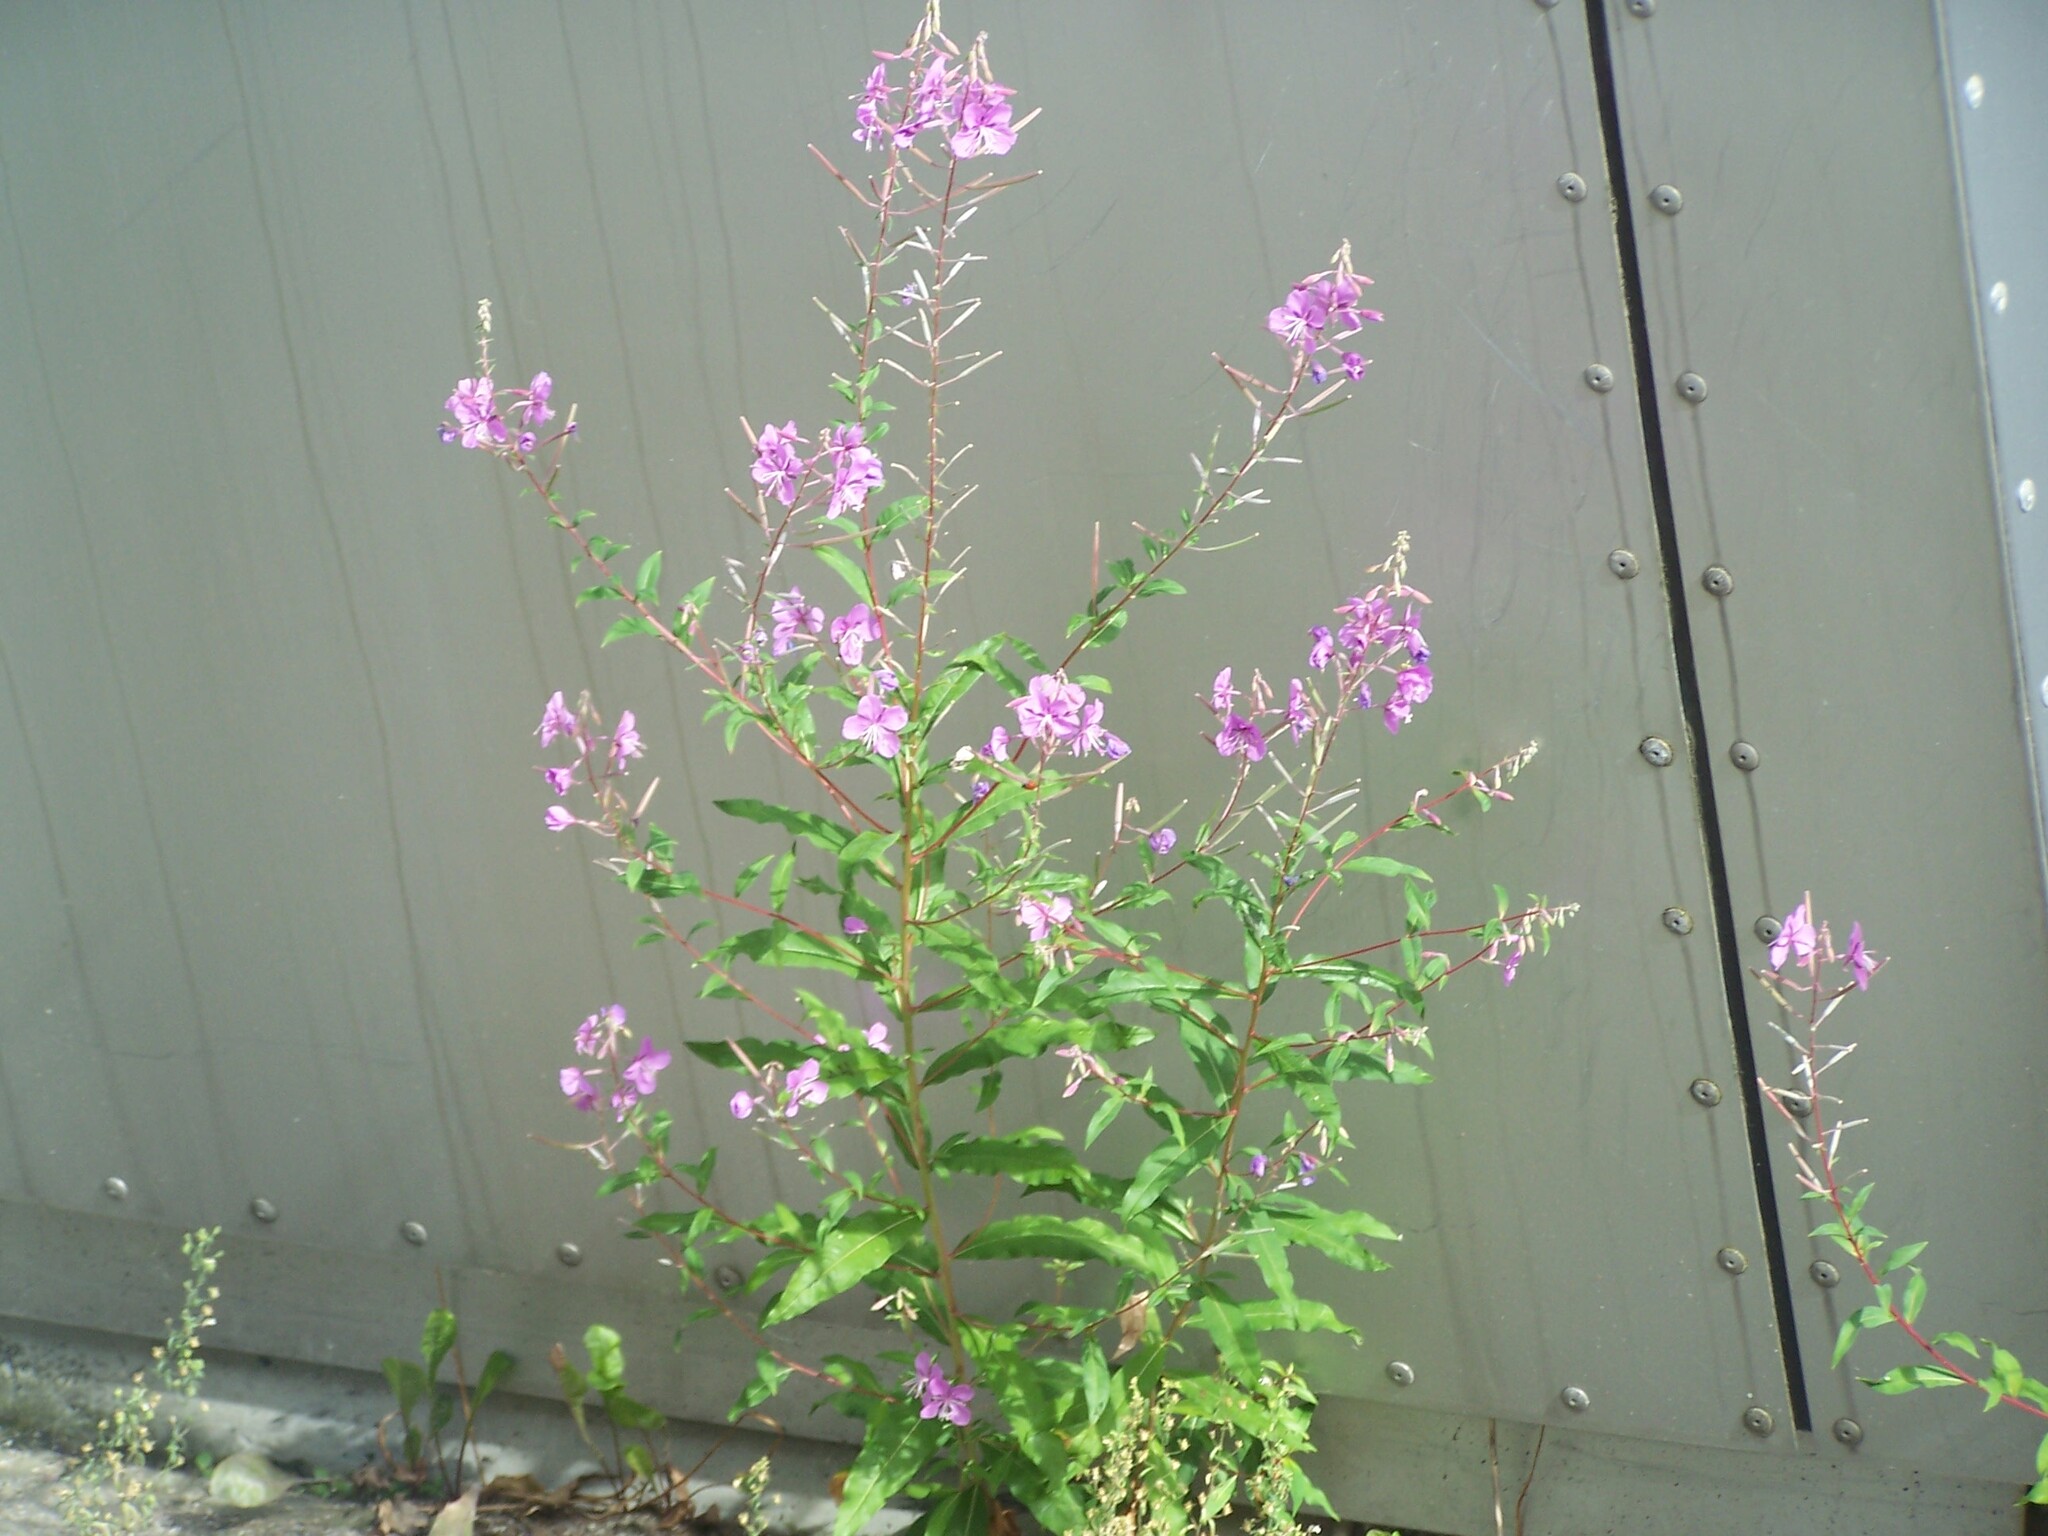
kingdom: Plantae
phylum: Tracheophyta
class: Magnoliopsida
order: Myrtales
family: Onagraceae
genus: Chamaenerion
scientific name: Chamaenerion angustifolium
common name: Fireweed
